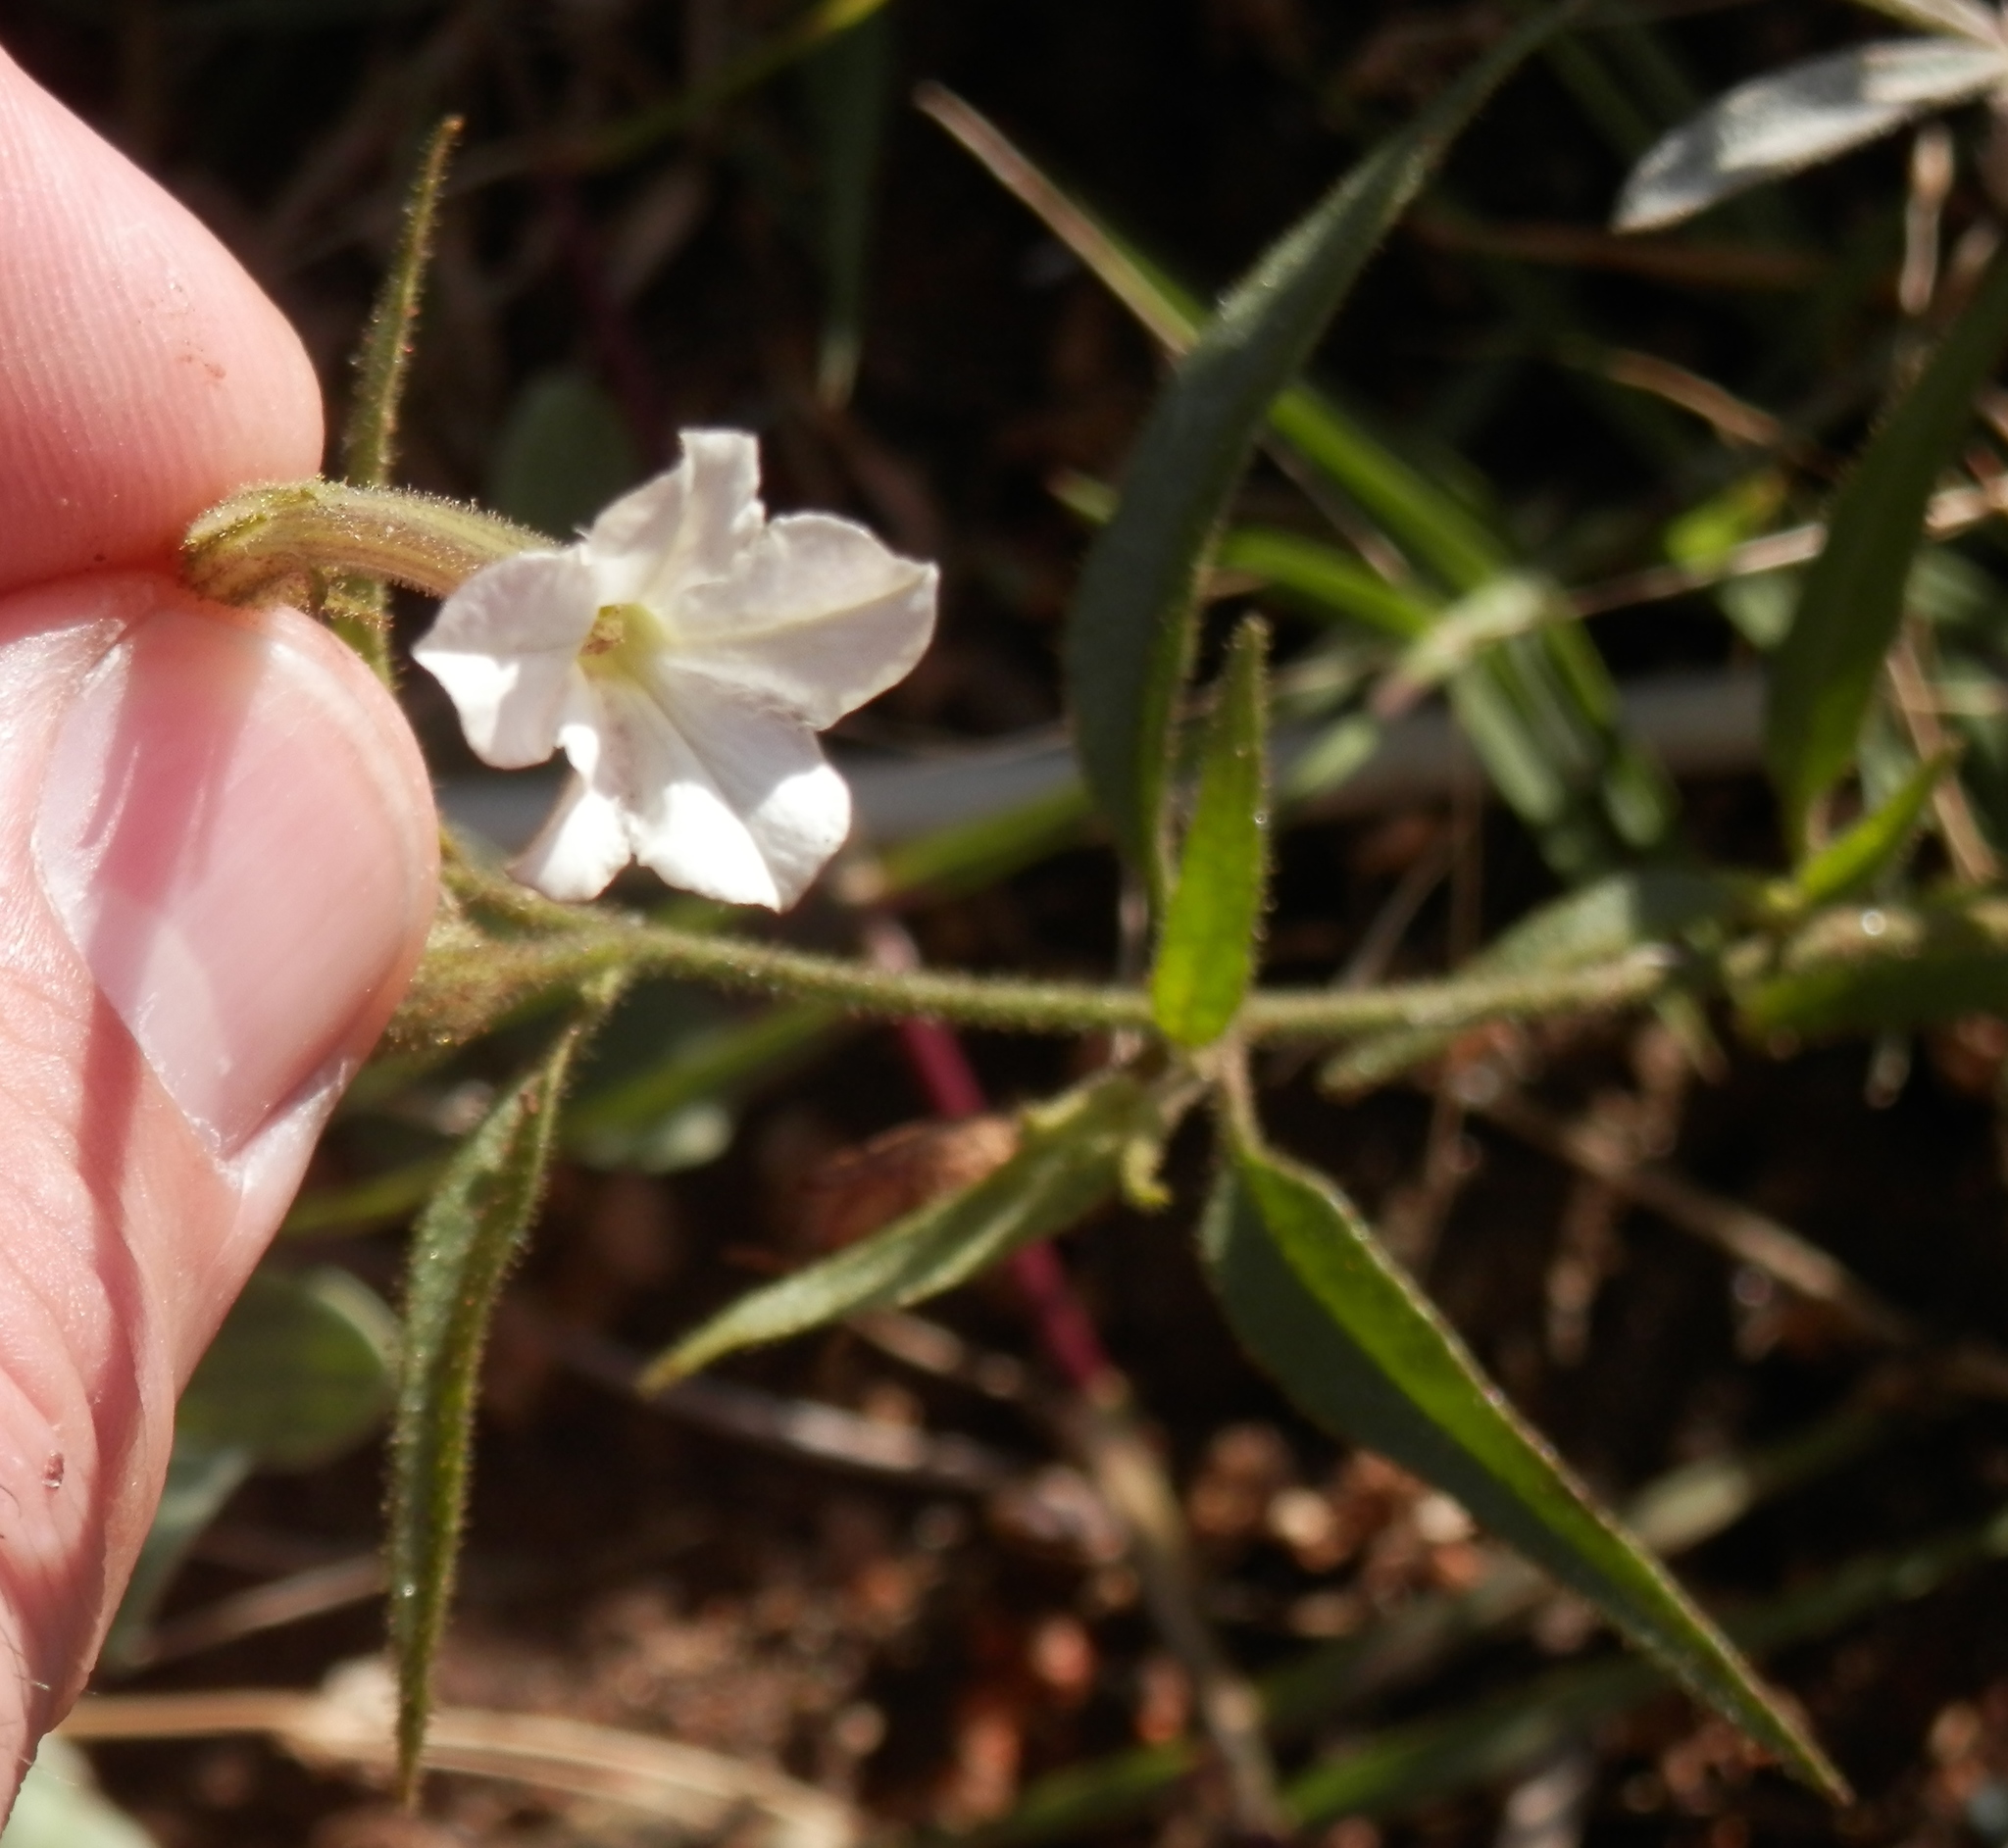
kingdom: Plantae
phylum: Tracheophyta
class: Magnoliopsida
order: Solanales
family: Solanaceae
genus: Nicotiana
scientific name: Nicotiana quadrivalvis
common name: Indian tobacco
